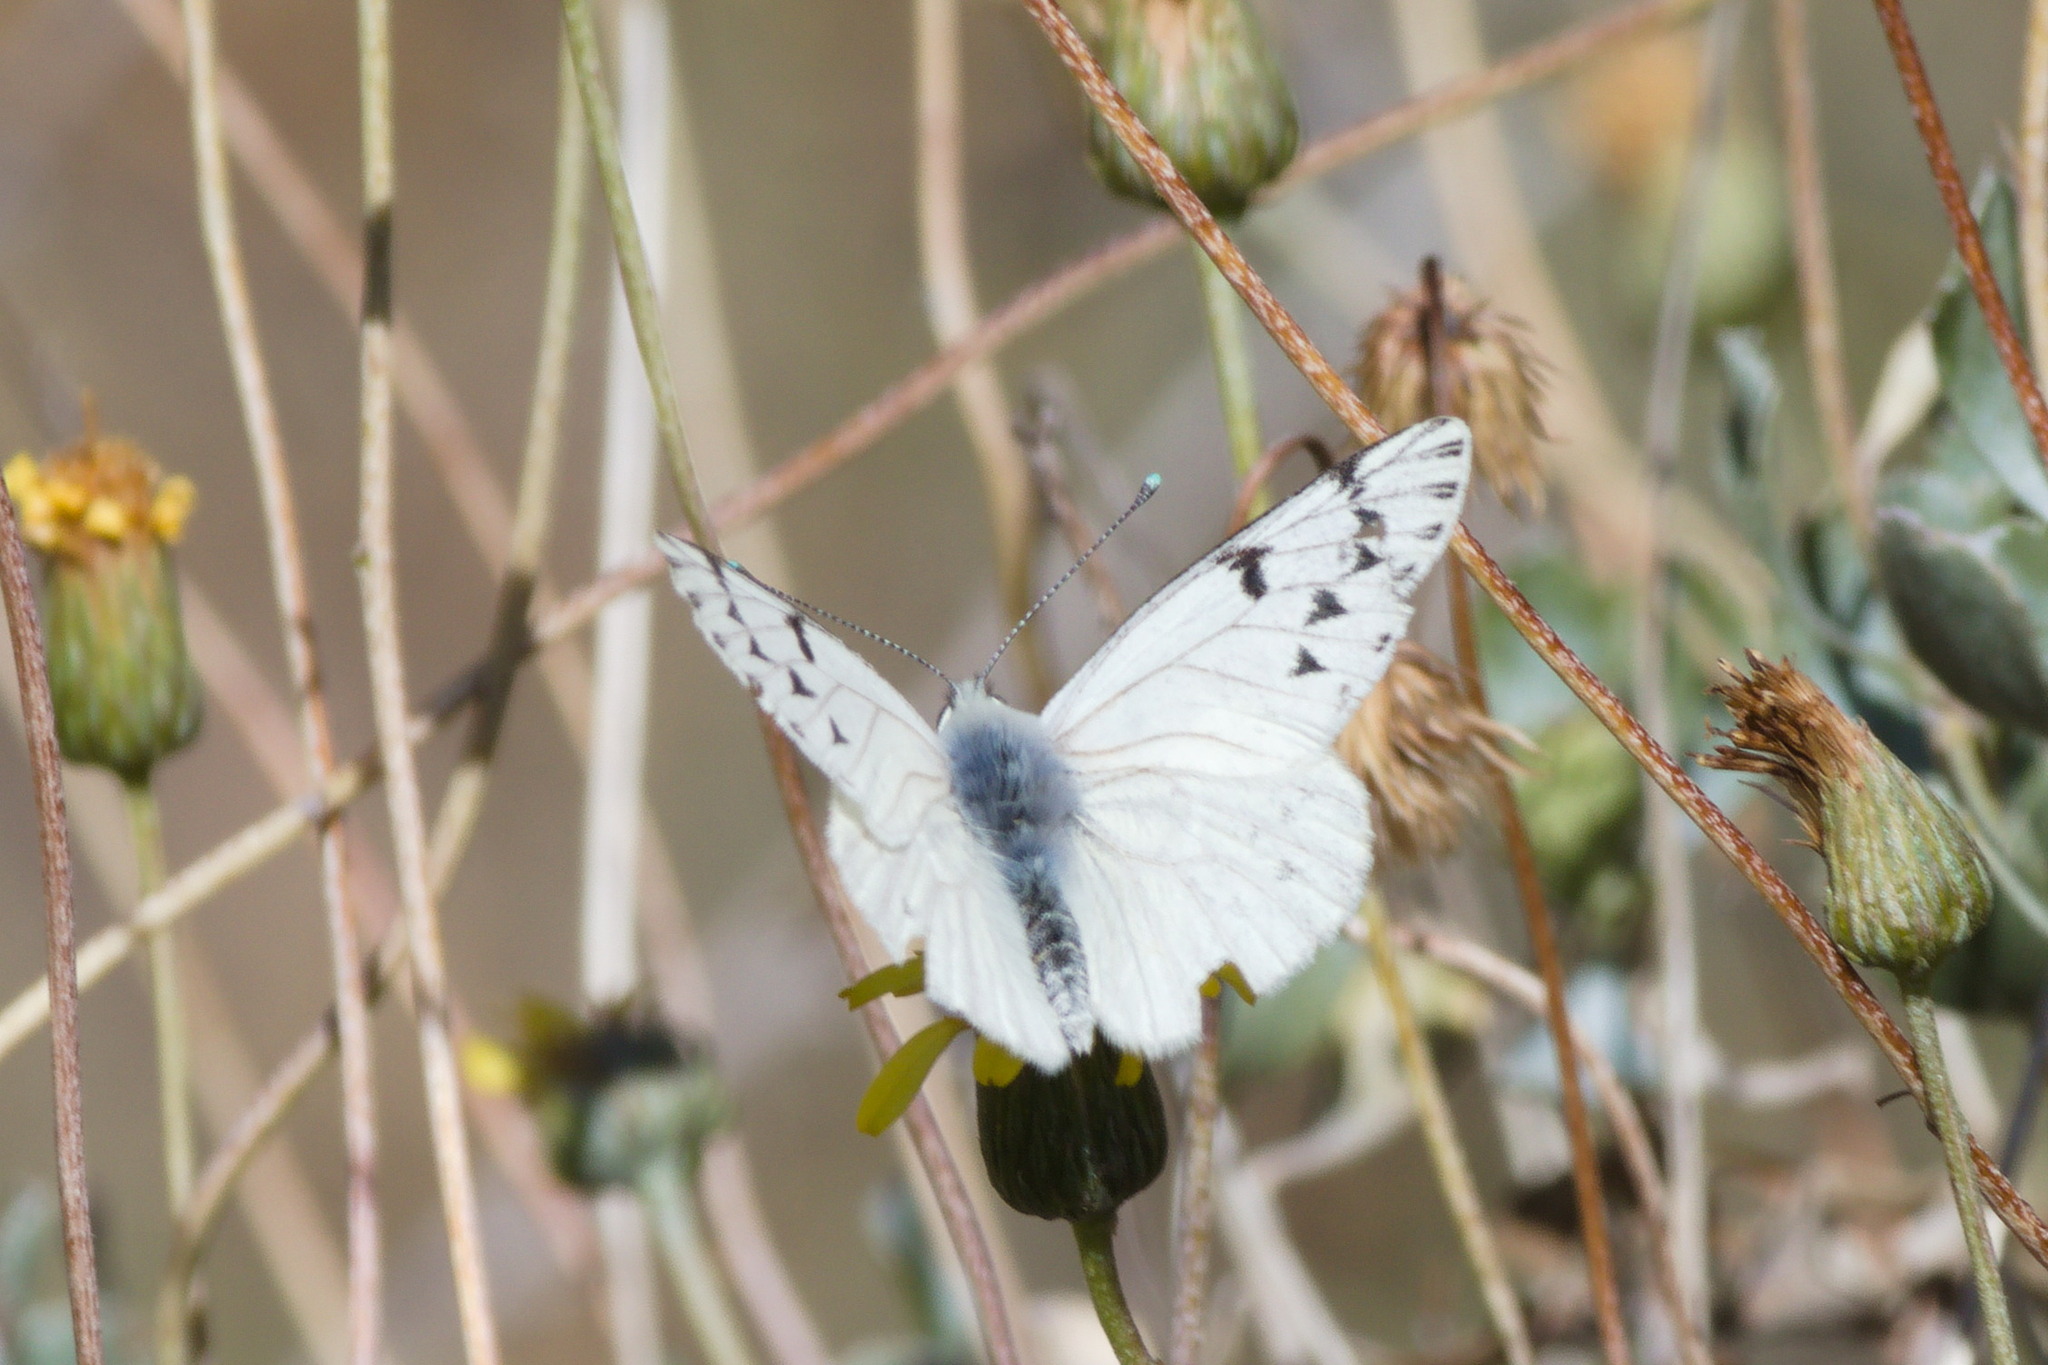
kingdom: Animalia
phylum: Arthropoda
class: Insecta
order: Lepidoptera
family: Pieridae
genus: Tatochila
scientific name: Tatochila mercedis
